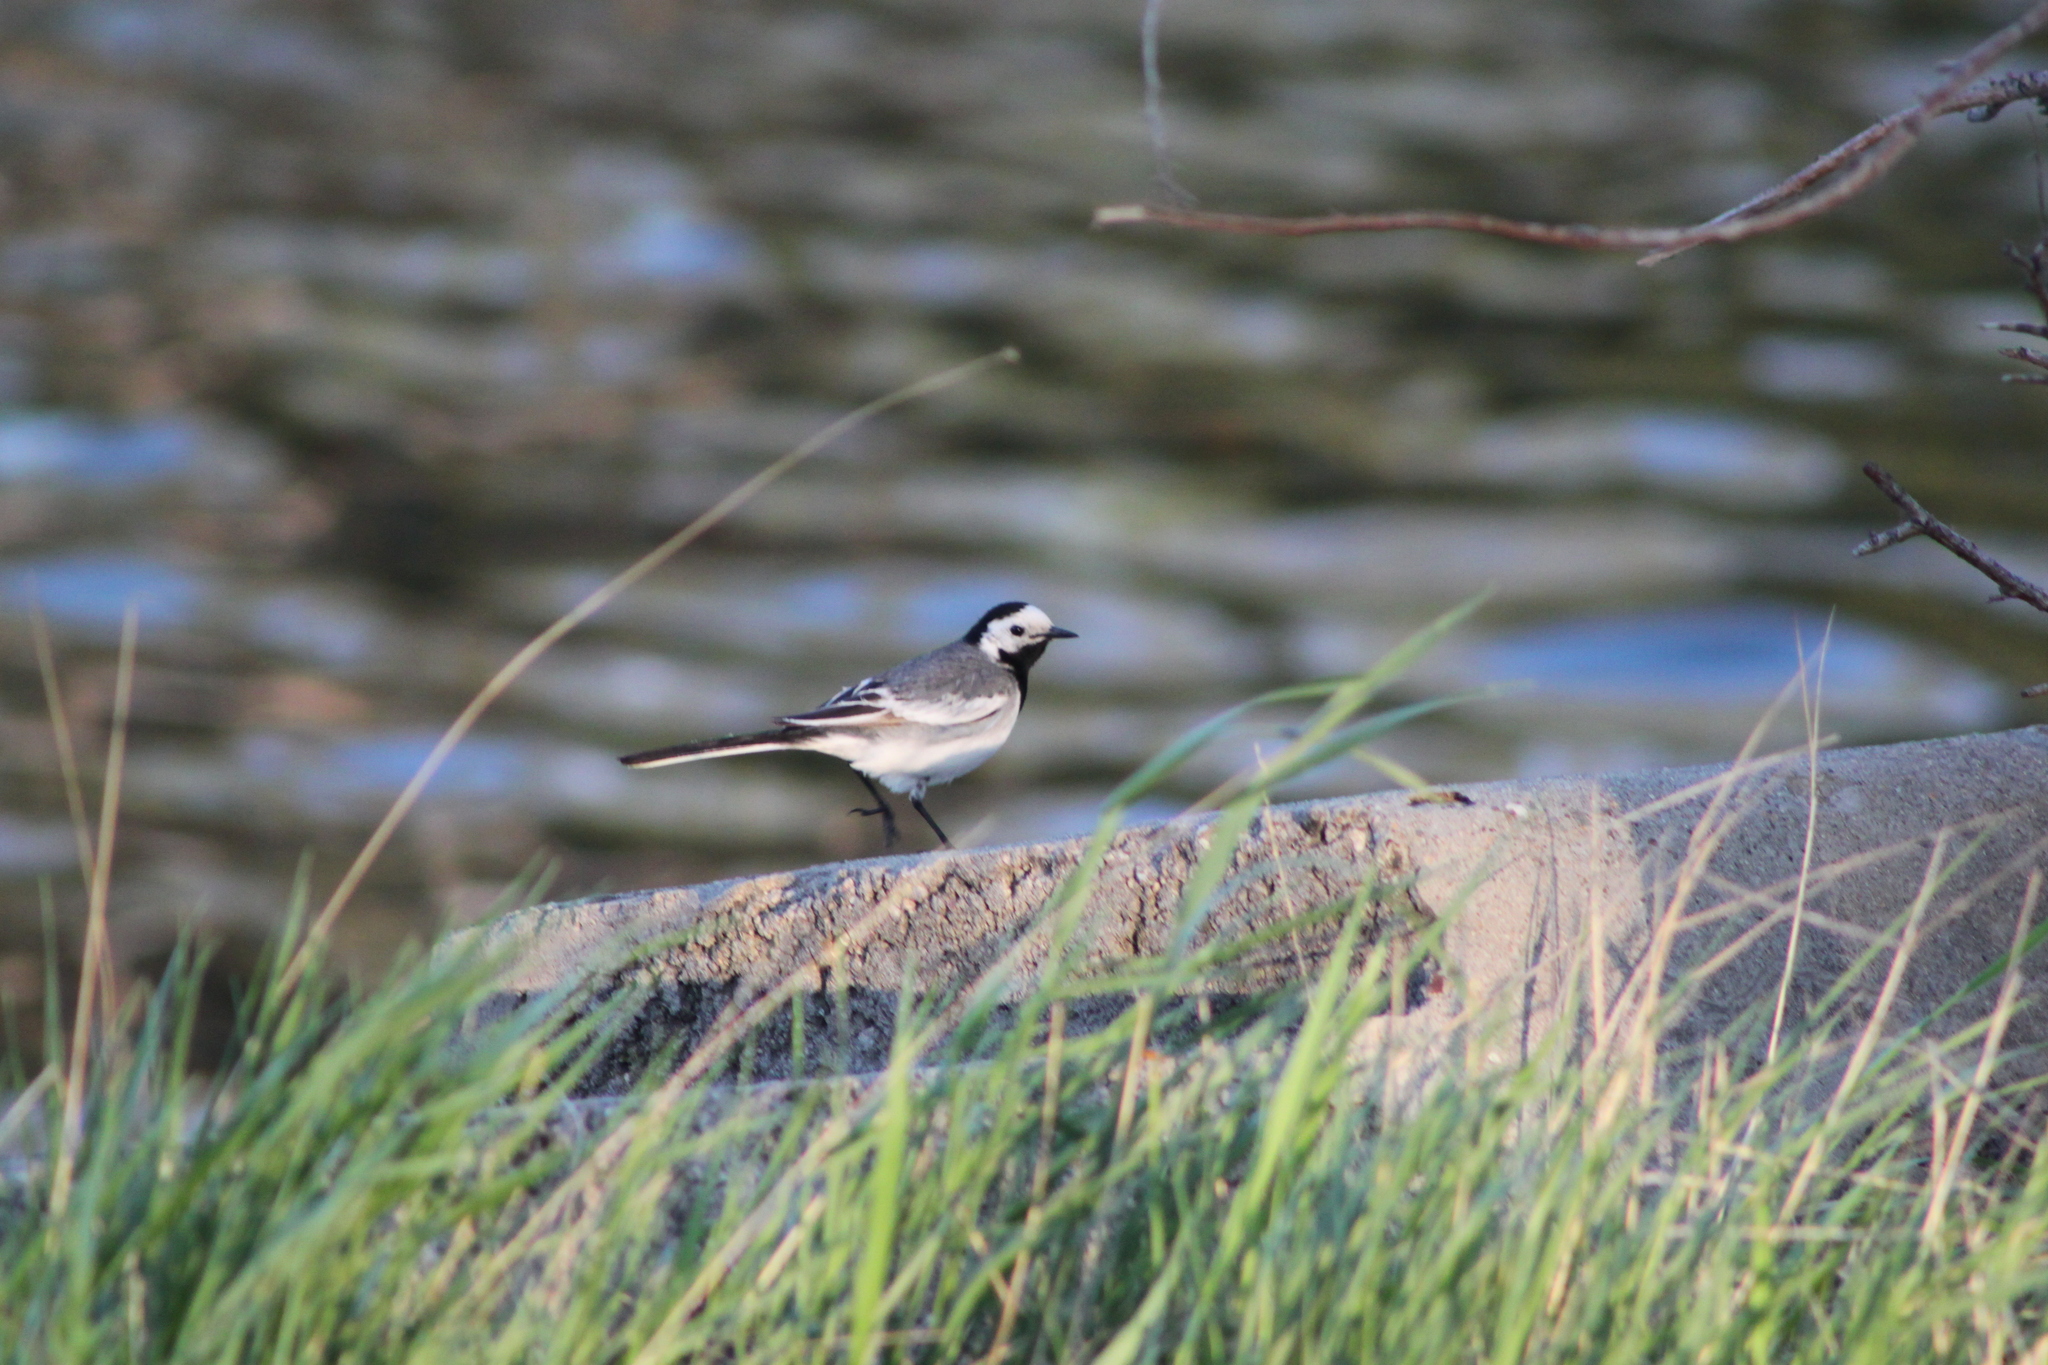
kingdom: Animalia
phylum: Chordata
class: Aves
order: Passeriformes
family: Motacillidae
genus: Motacilla
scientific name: Motacilla alba
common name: White wagtail
